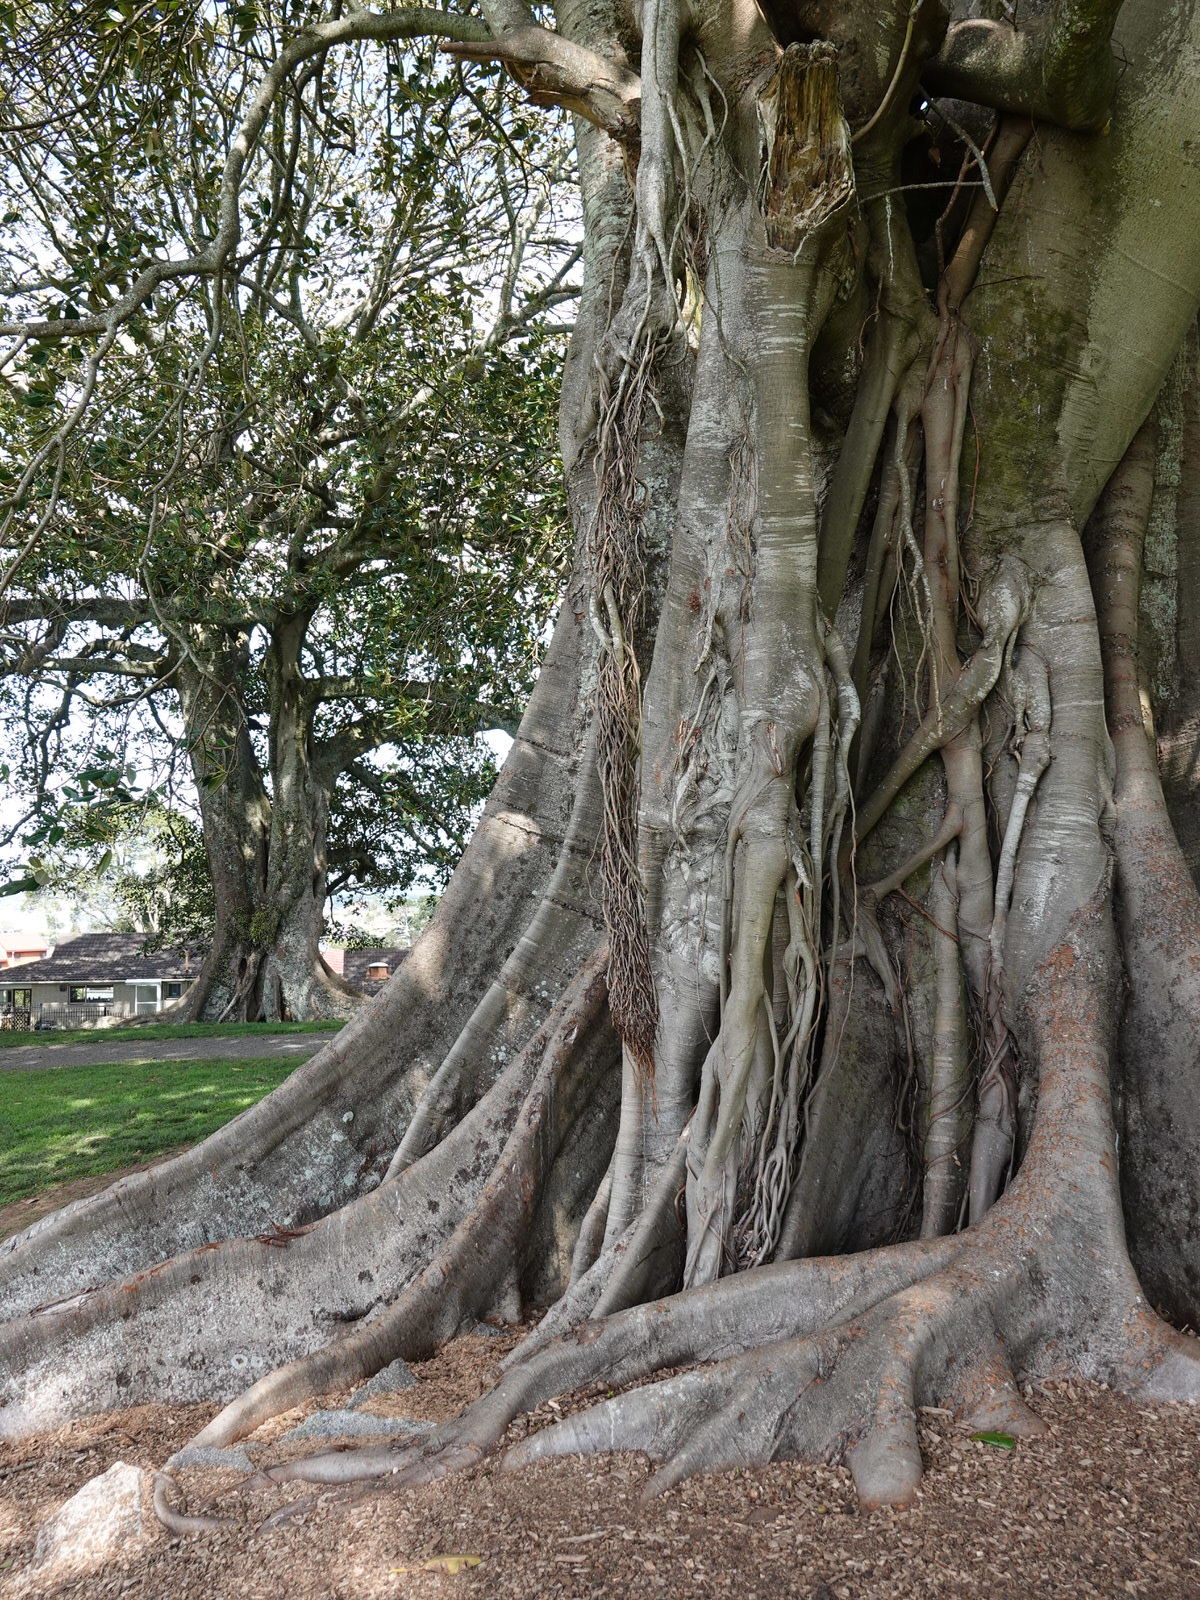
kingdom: Animalia
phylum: Arthropoda
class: Insecta
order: Hemiptera
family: Pentatomidae
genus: Nezara
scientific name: Nezara viridula
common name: Southern green stink bug
